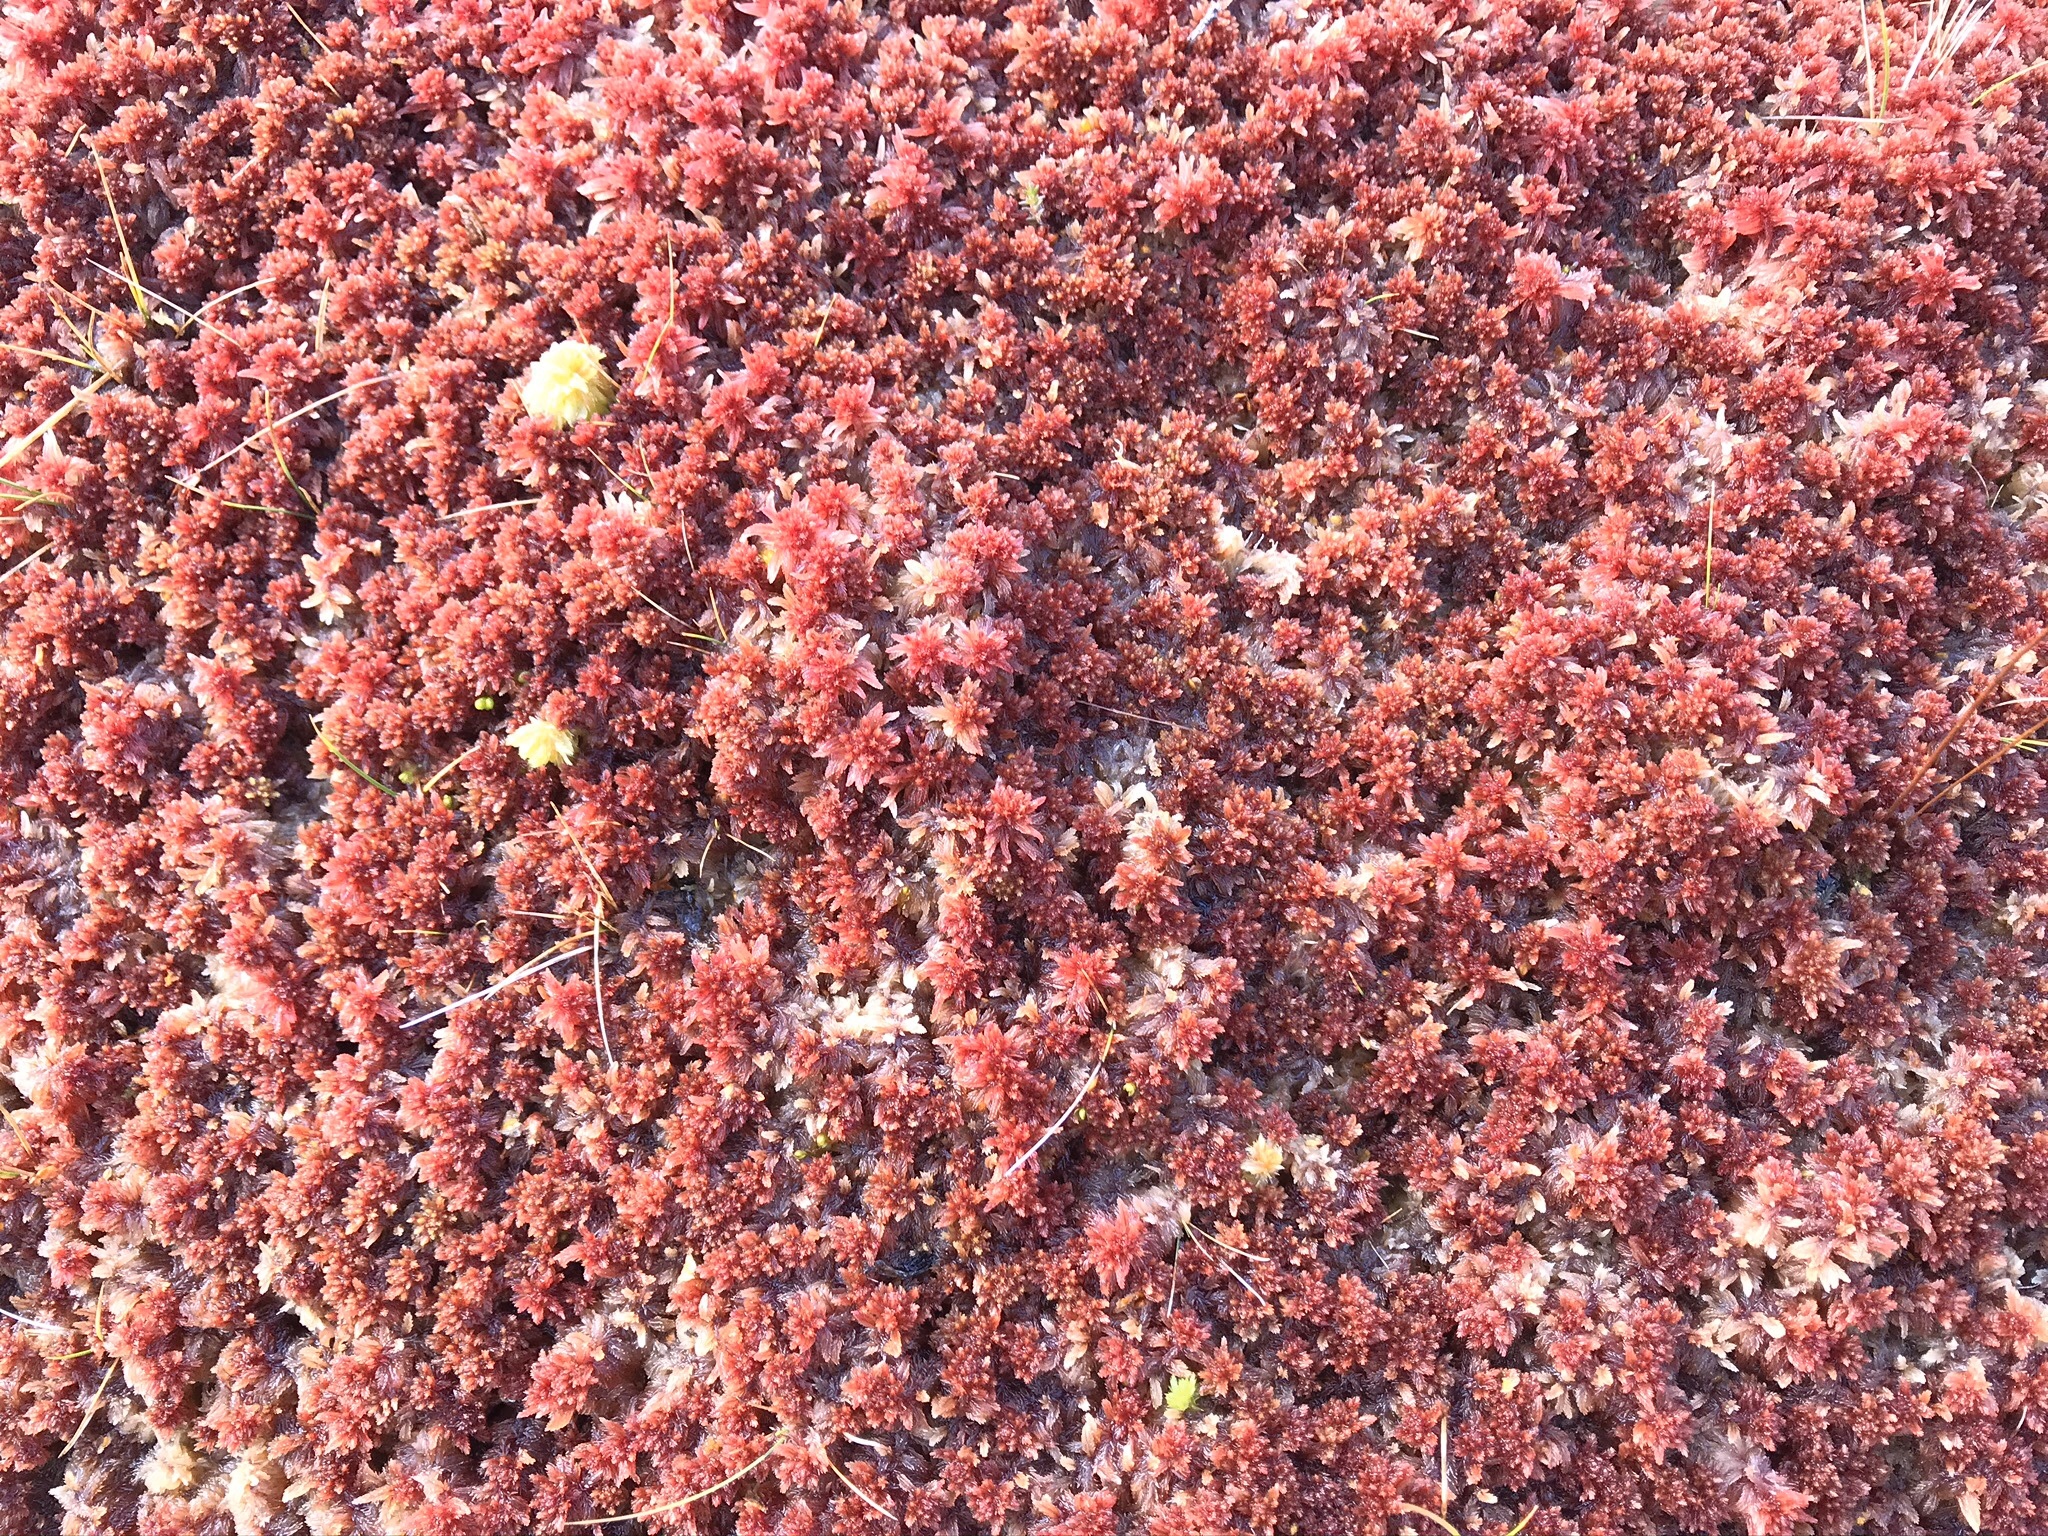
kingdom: Plantae
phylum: Bryophyta
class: Sphagnopsida
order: Sphagnales
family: Sphagnaceae
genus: Sphagnum
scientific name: Sphagnum capillifolium
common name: Small red peat moss
